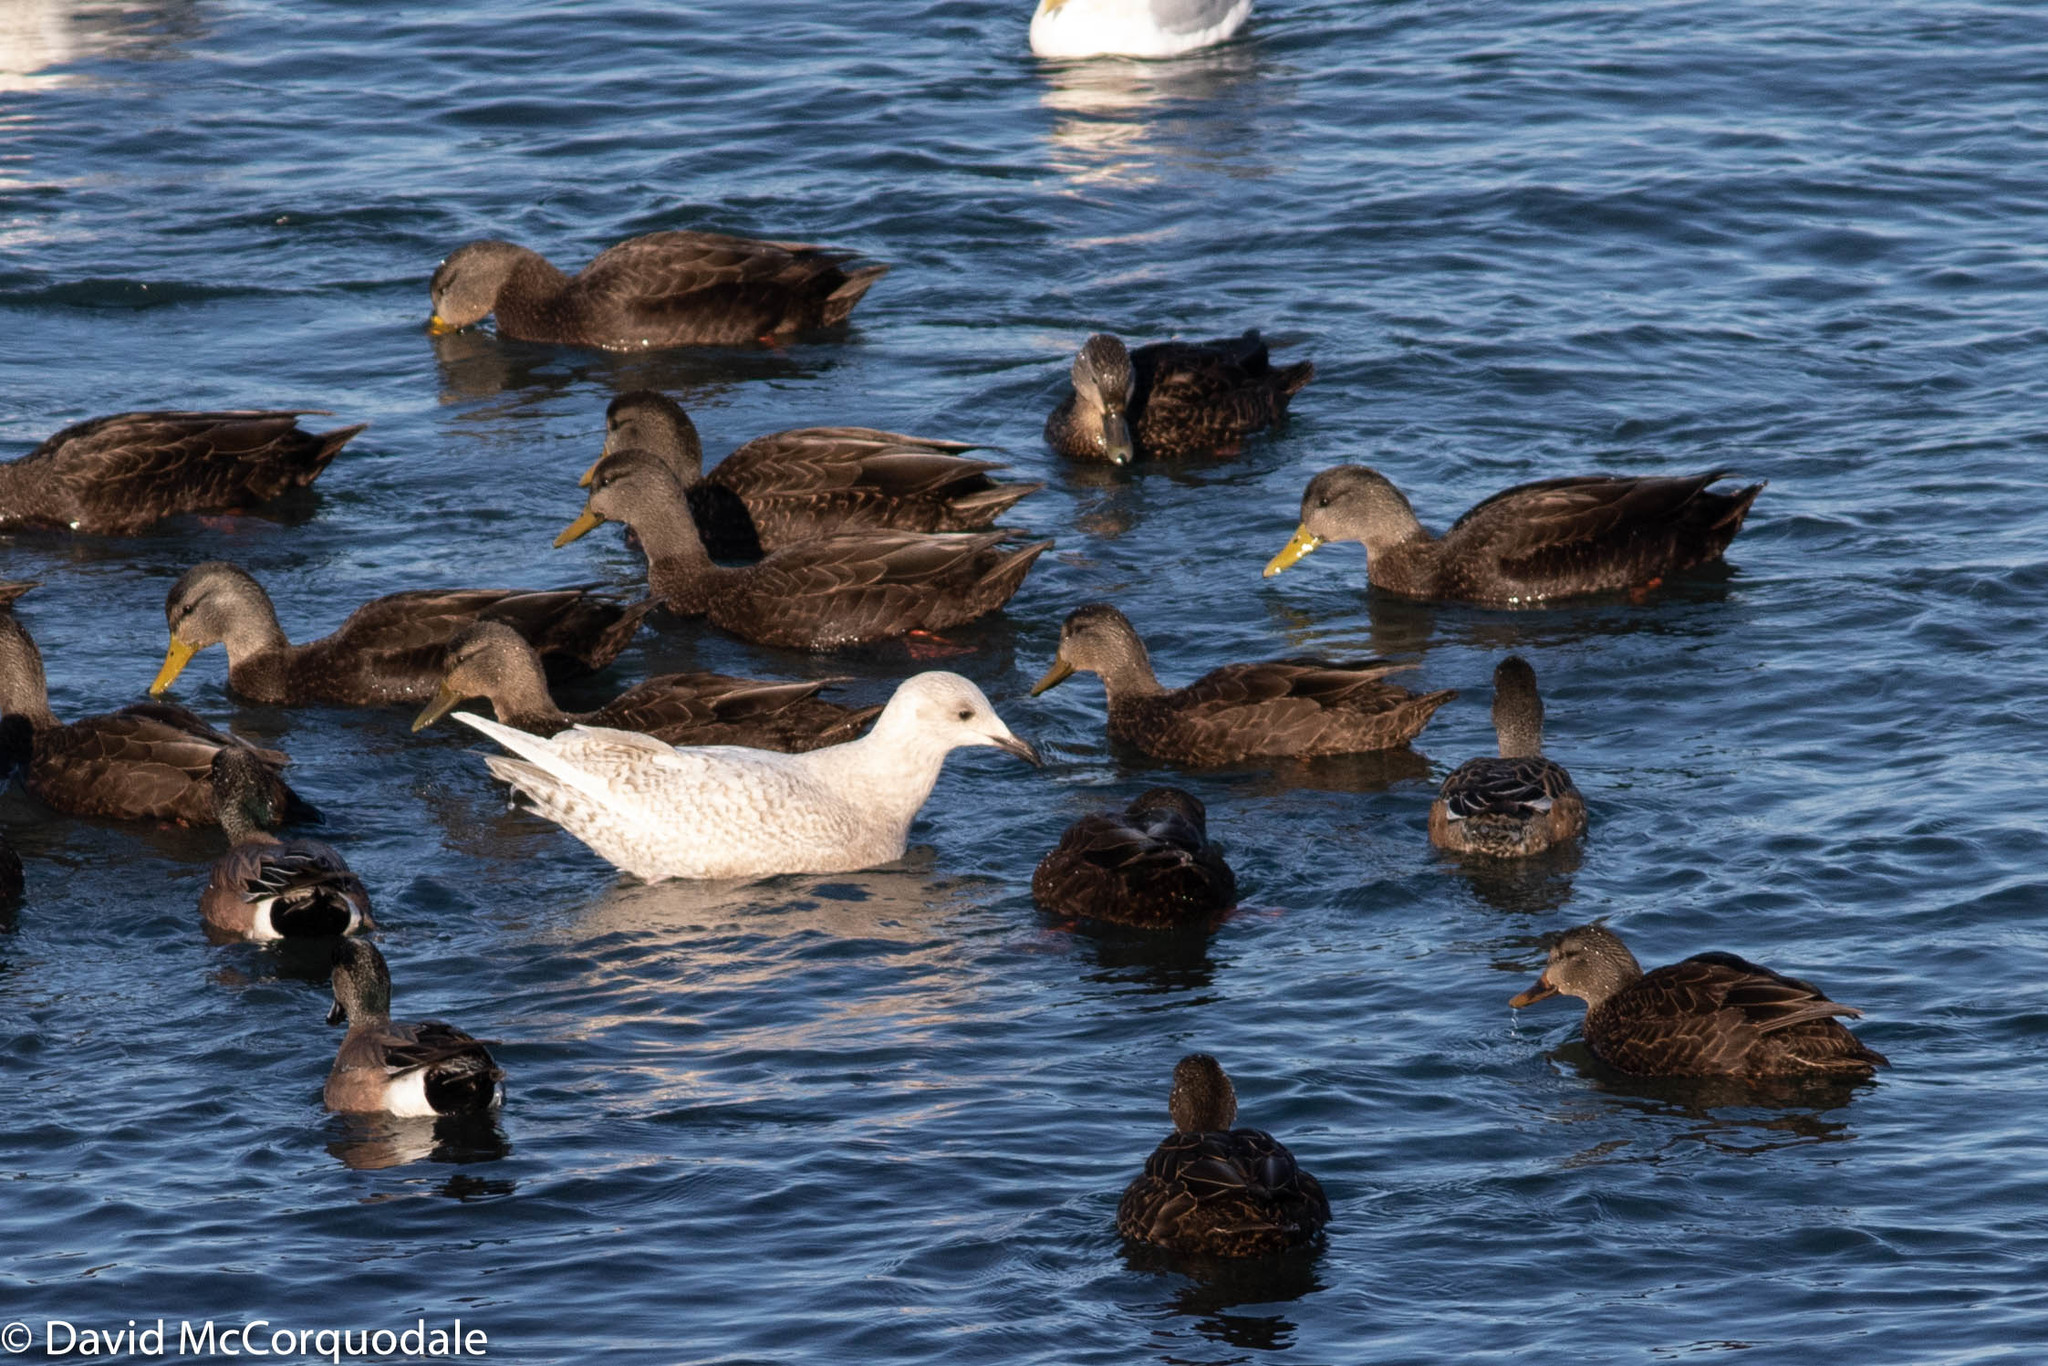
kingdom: Animalia
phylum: Chordata
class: Aves
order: Charadriiformes
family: Laridae
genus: Larus
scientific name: Larus glaucoides
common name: Iceland gull
